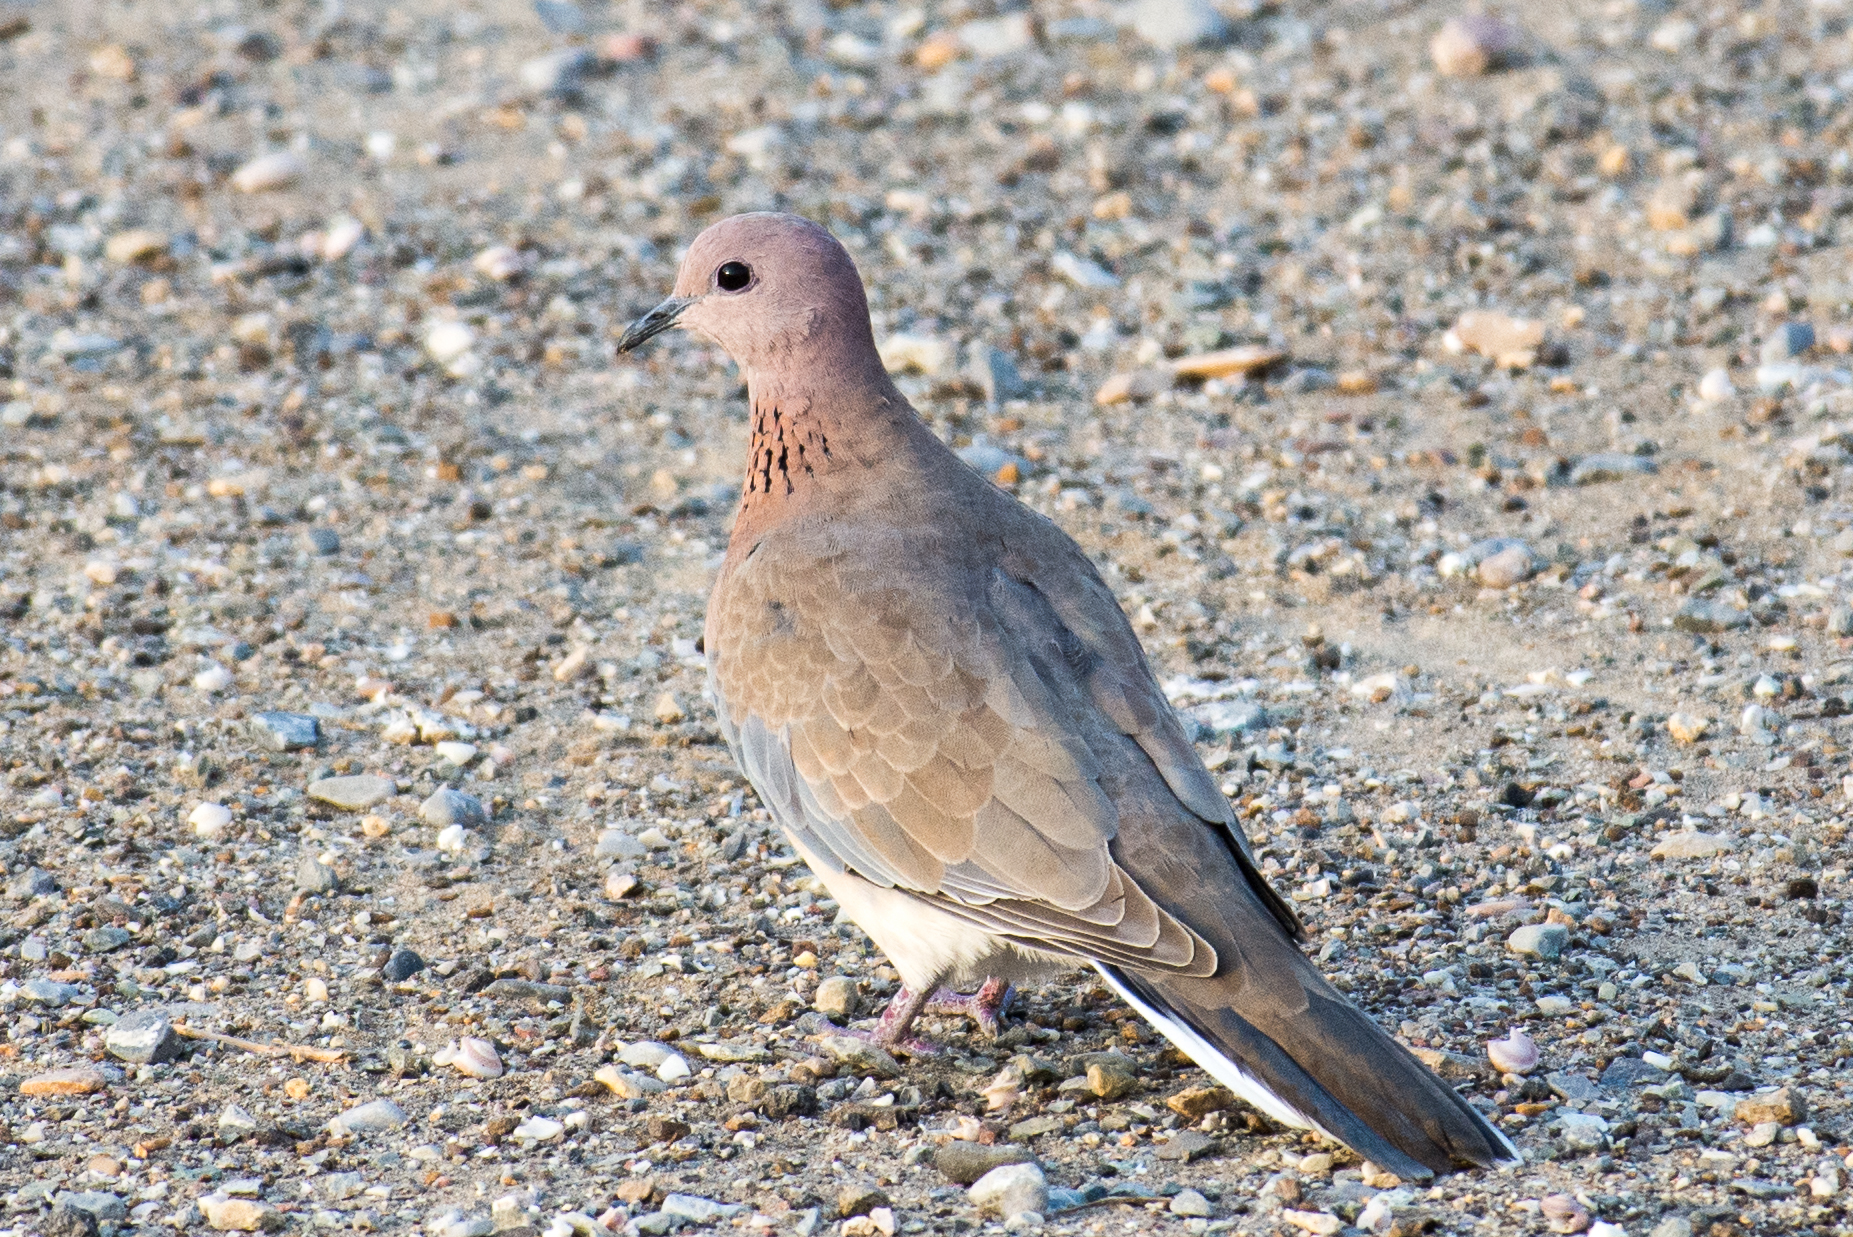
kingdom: Animalia
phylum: Chordata
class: Aves
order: Columbiformes
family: Columbidae
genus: Spilopelia
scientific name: Spilopelia senegalensis
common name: Laughing dove
